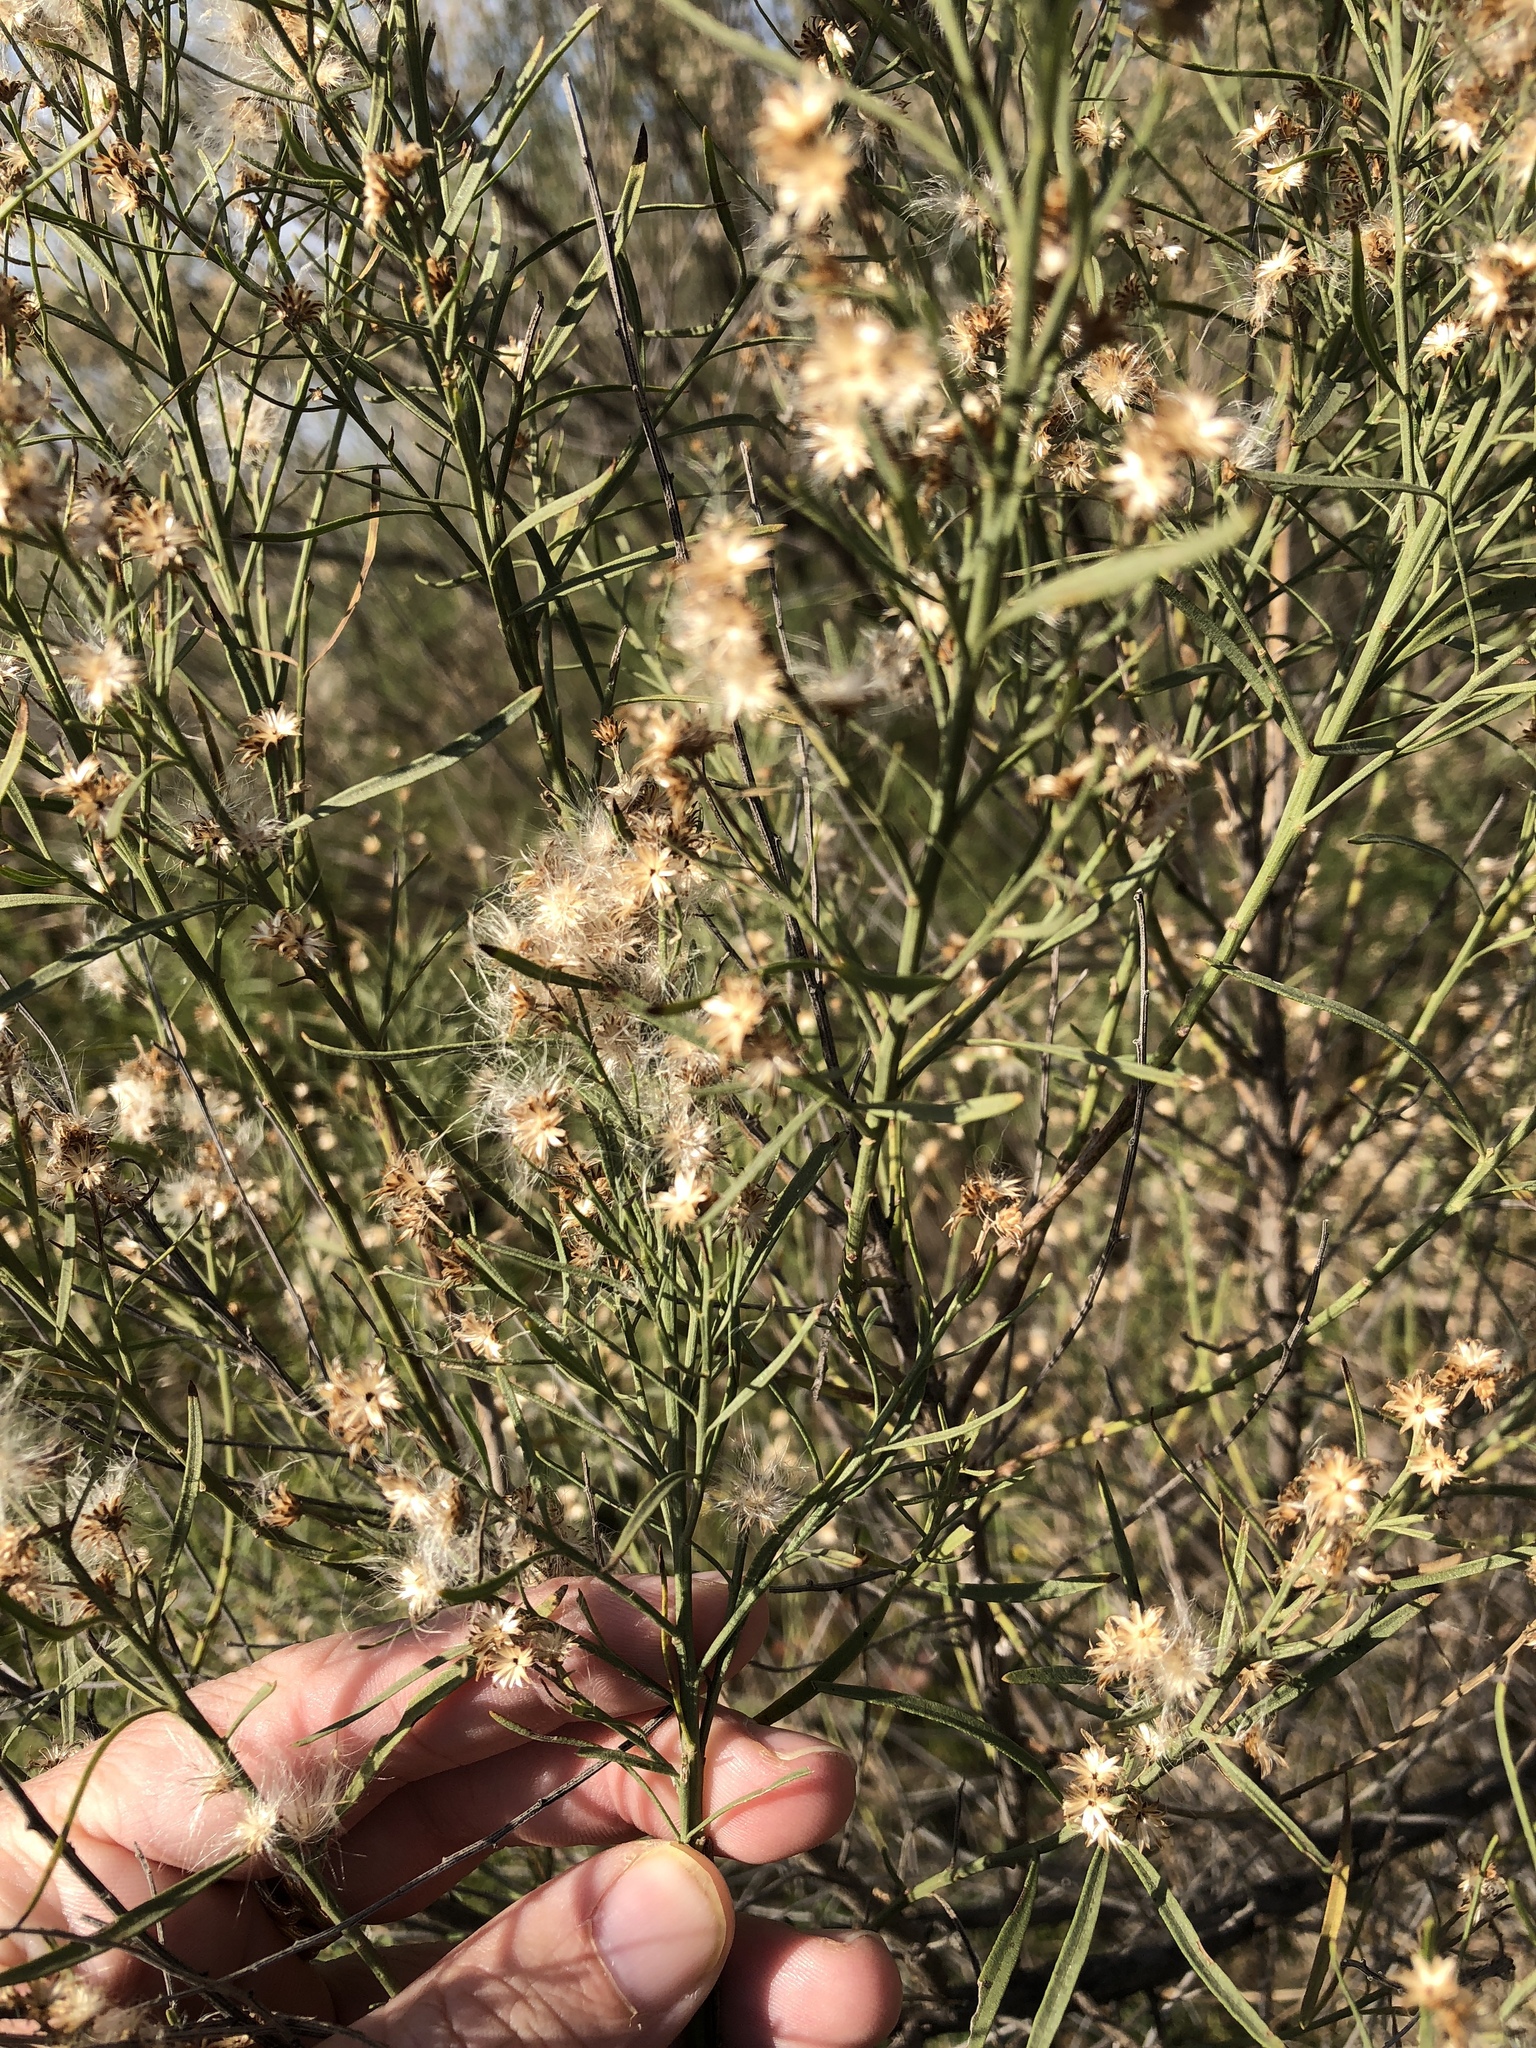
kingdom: Plantae
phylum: Tracheophyta
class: Magnoliopsida
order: Asterales
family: Asteraceae
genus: Baccharis
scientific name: Baccharis neglecta
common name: Roosevelt-weed
